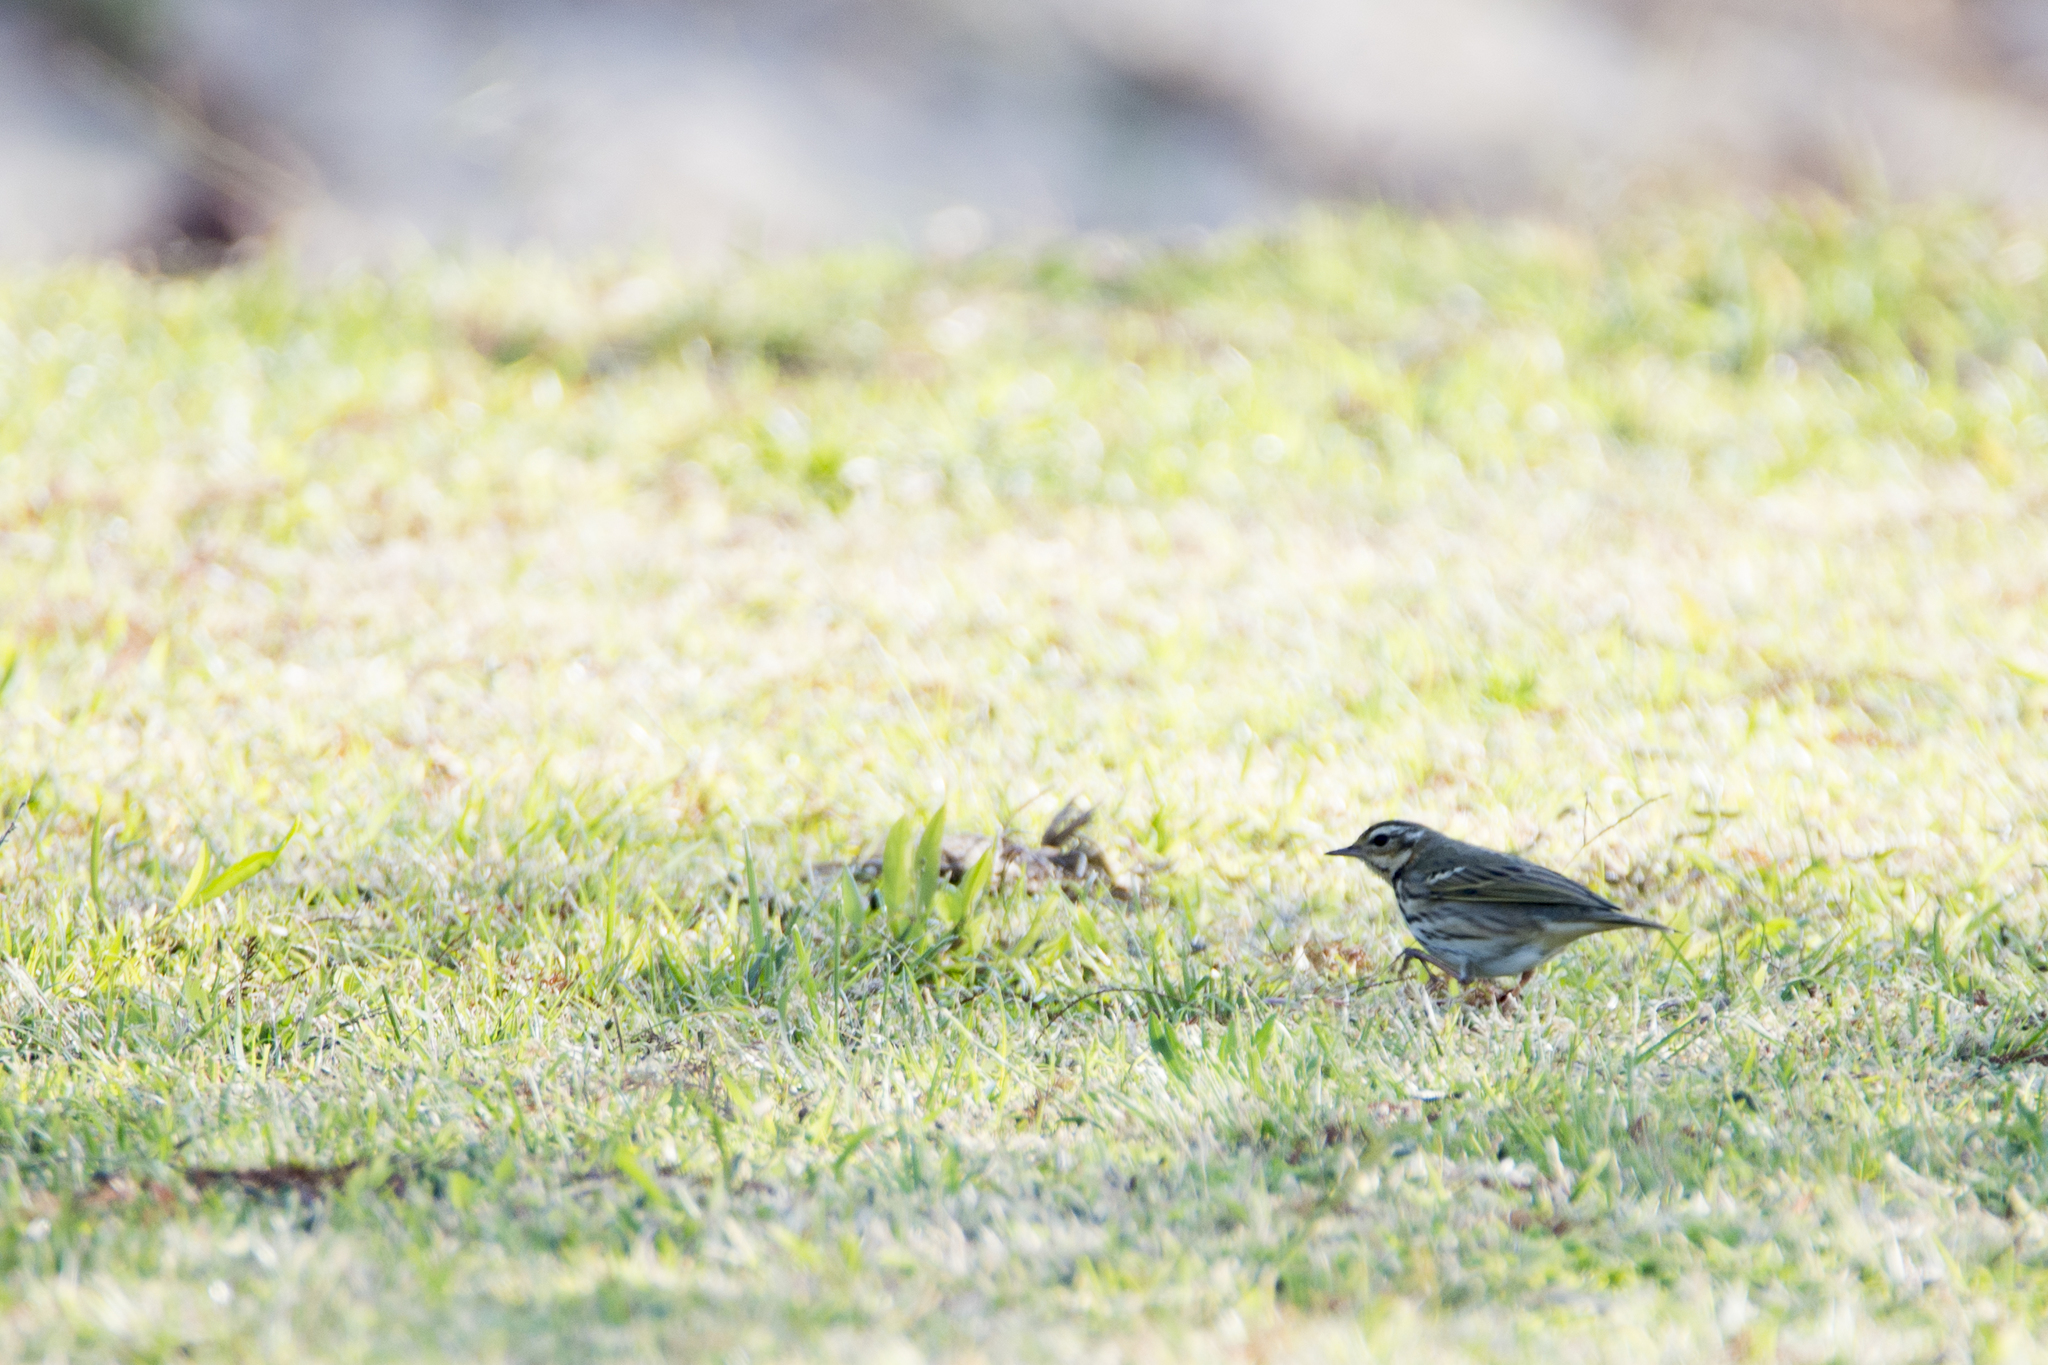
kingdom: Animalia
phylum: Chordata
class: Aves
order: Passeriformes
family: Motacillidae
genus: Anthus
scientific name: Anthus hodgsoni
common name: Olive-backed pipit
